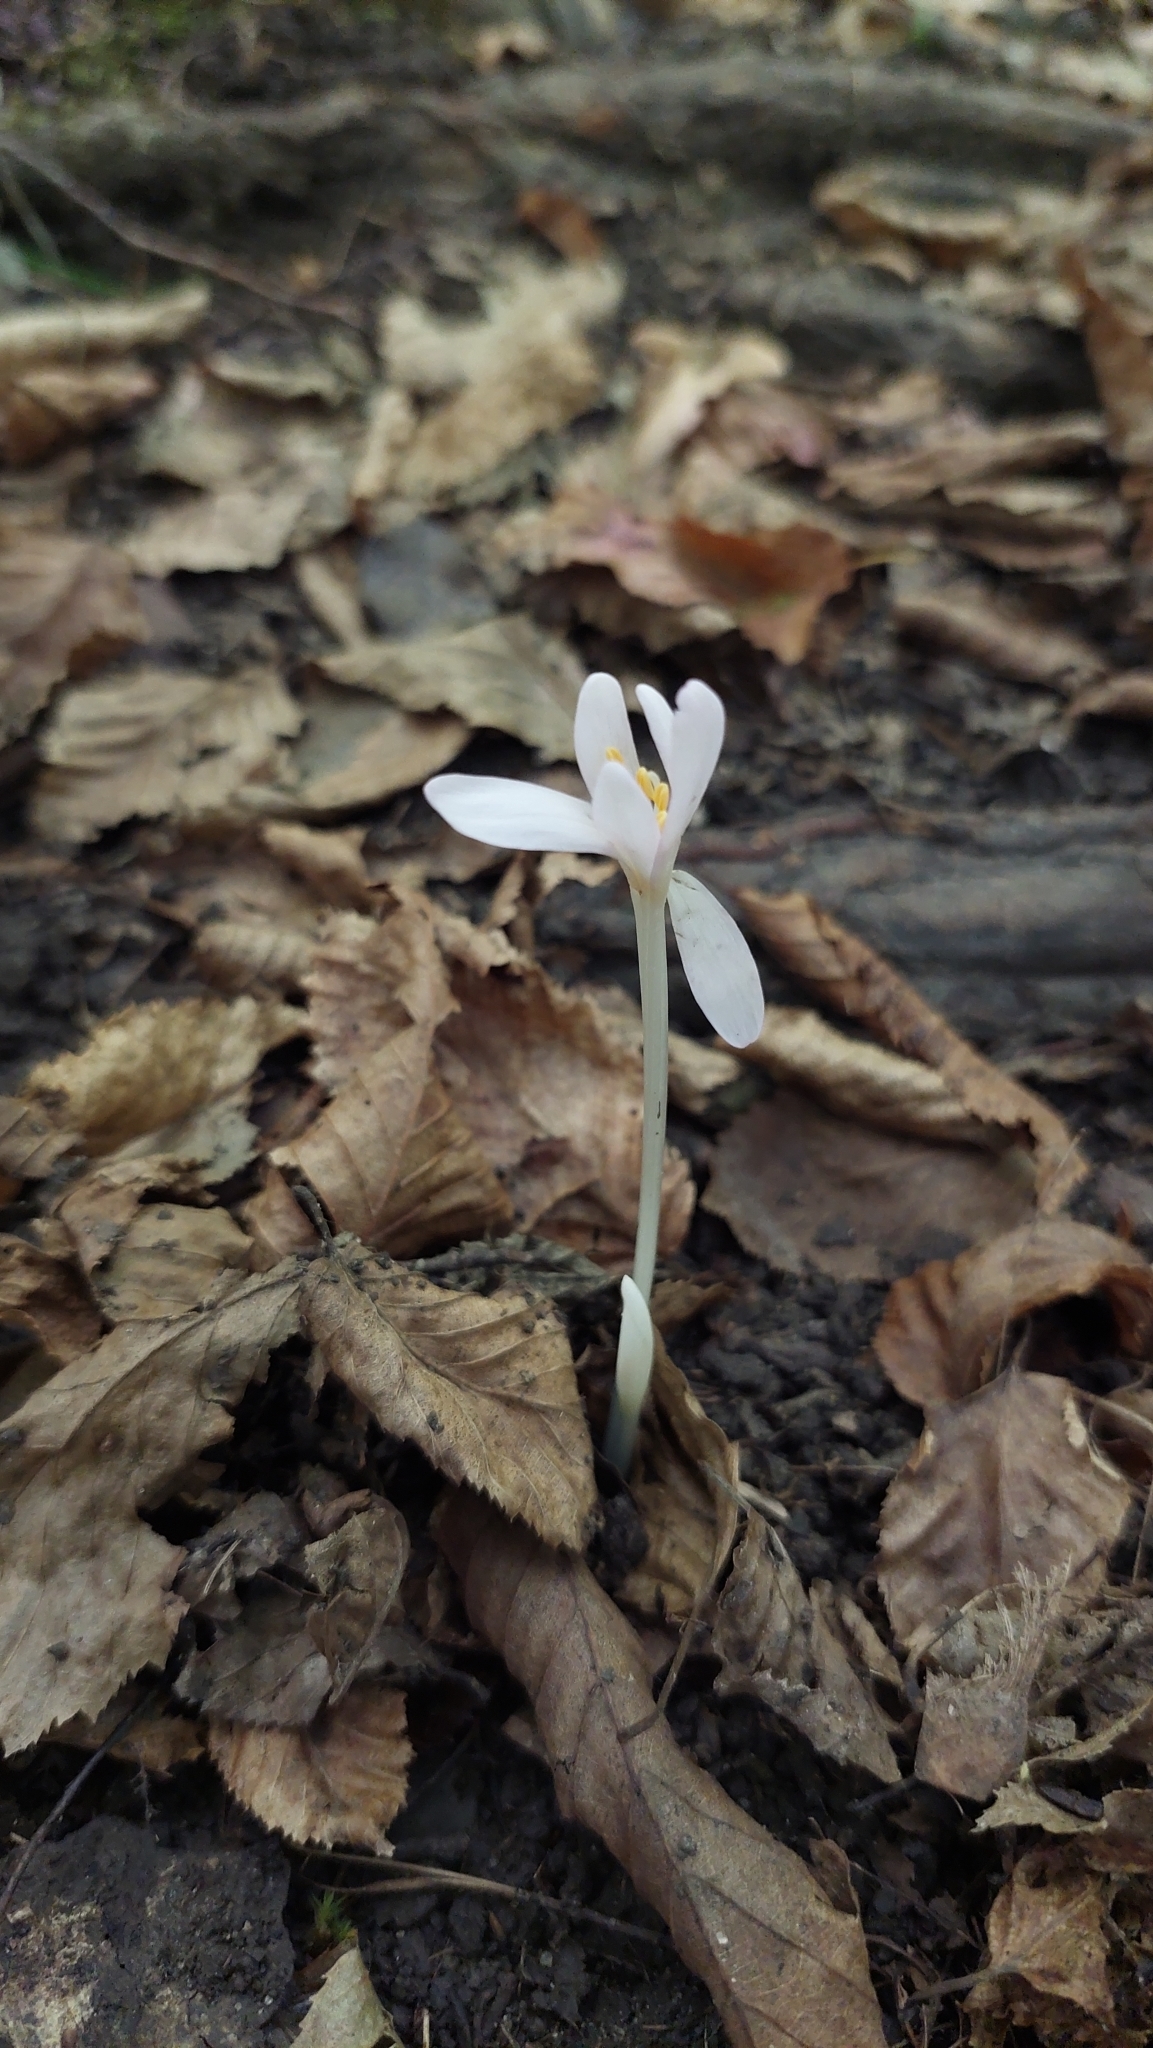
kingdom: Plantae
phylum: Tracheophyta
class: Liliopsida
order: Liliales
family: Colchicaceae
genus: Colchicum
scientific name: Colchicum umbrosum
